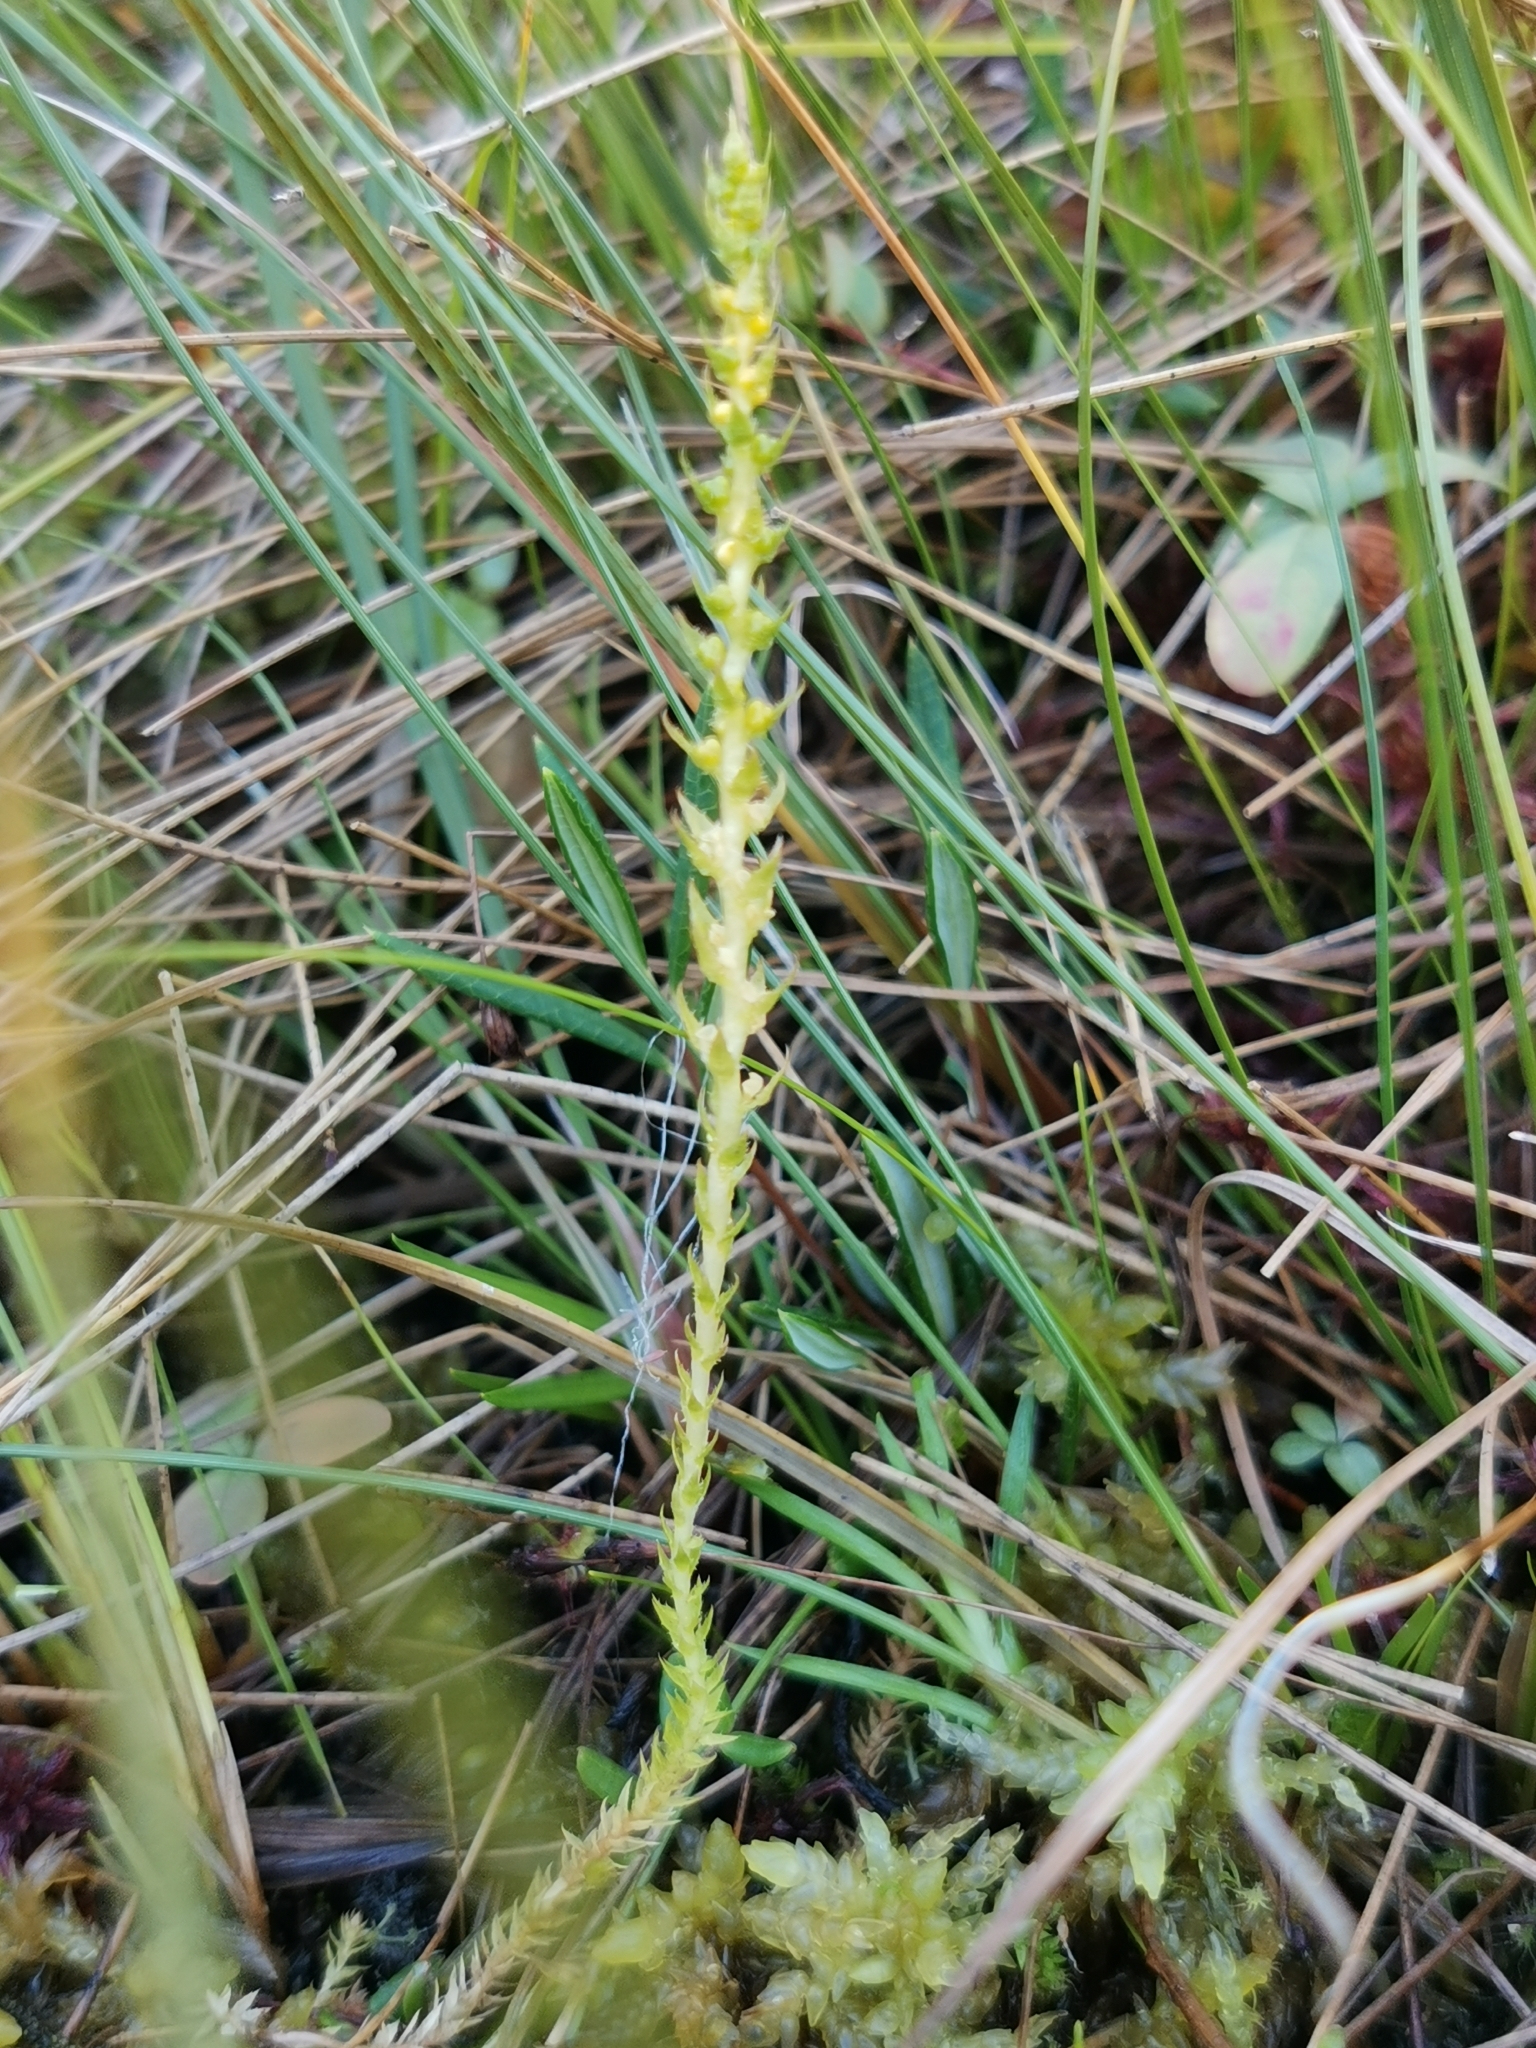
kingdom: Plantae
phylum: Tracheophyta
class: Lycopodiopsida
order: Selaginellales
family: Selaginellaceae
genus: Selaginella
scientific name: Selaginella selaginoides
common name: Prickly mountain-moss
